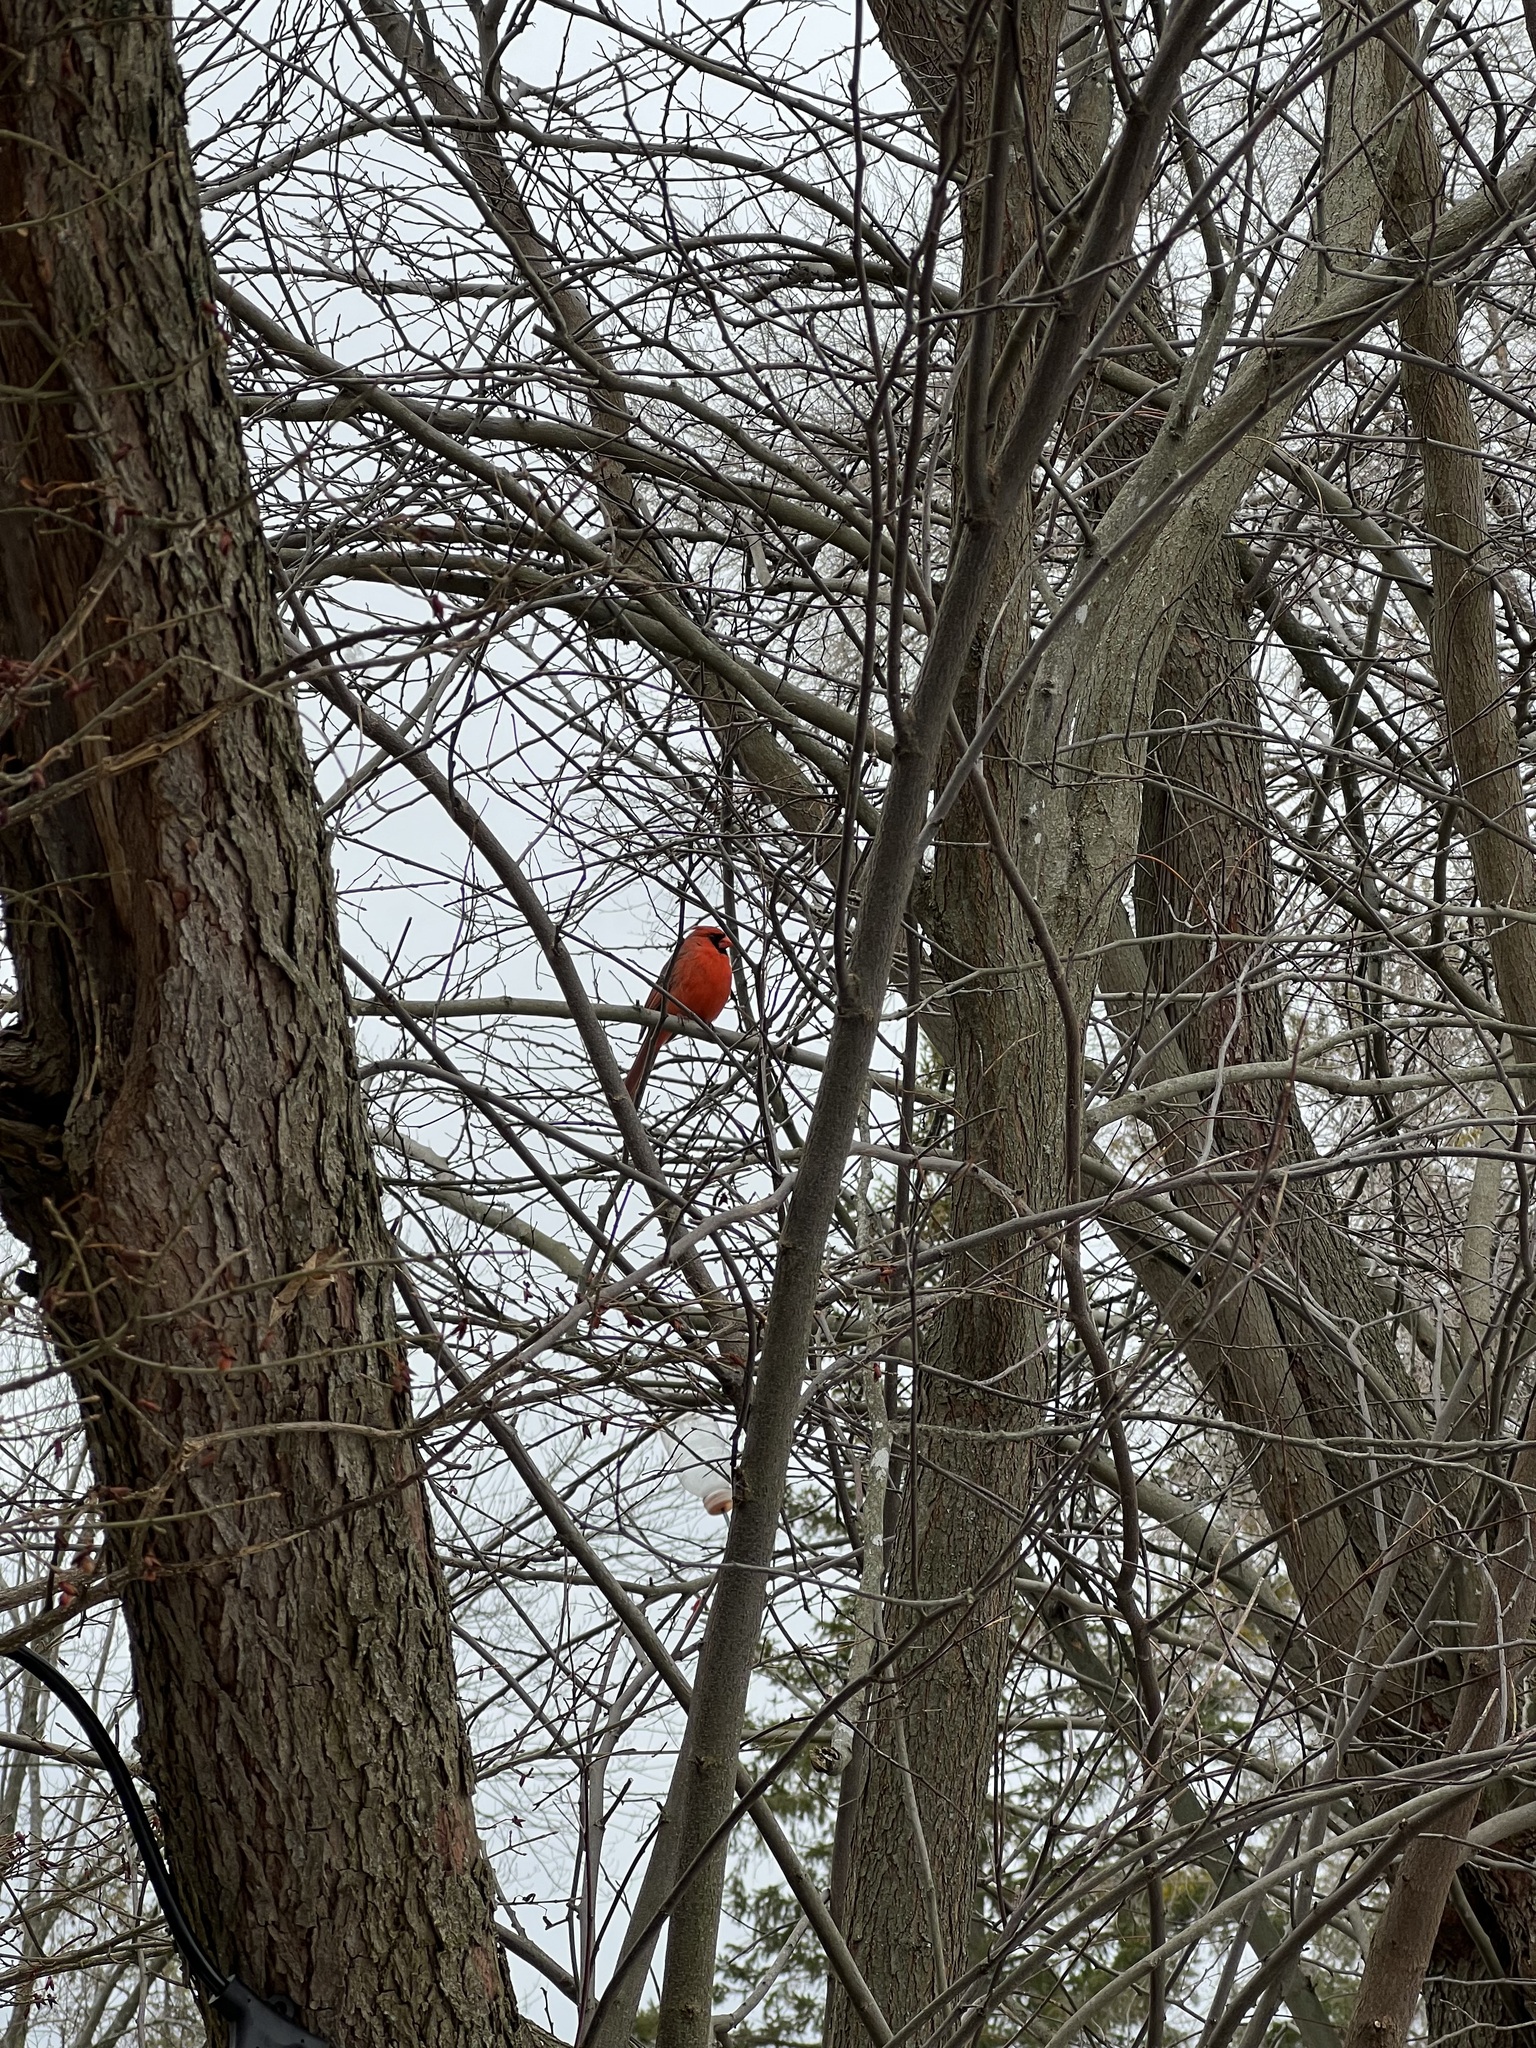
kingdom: Animalia
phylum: Chordata
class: Aves
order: Passeriformes
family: Cardinalidae
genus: Cardinalis
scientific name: Cardinalis cardinalis
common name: Northern cardinal
